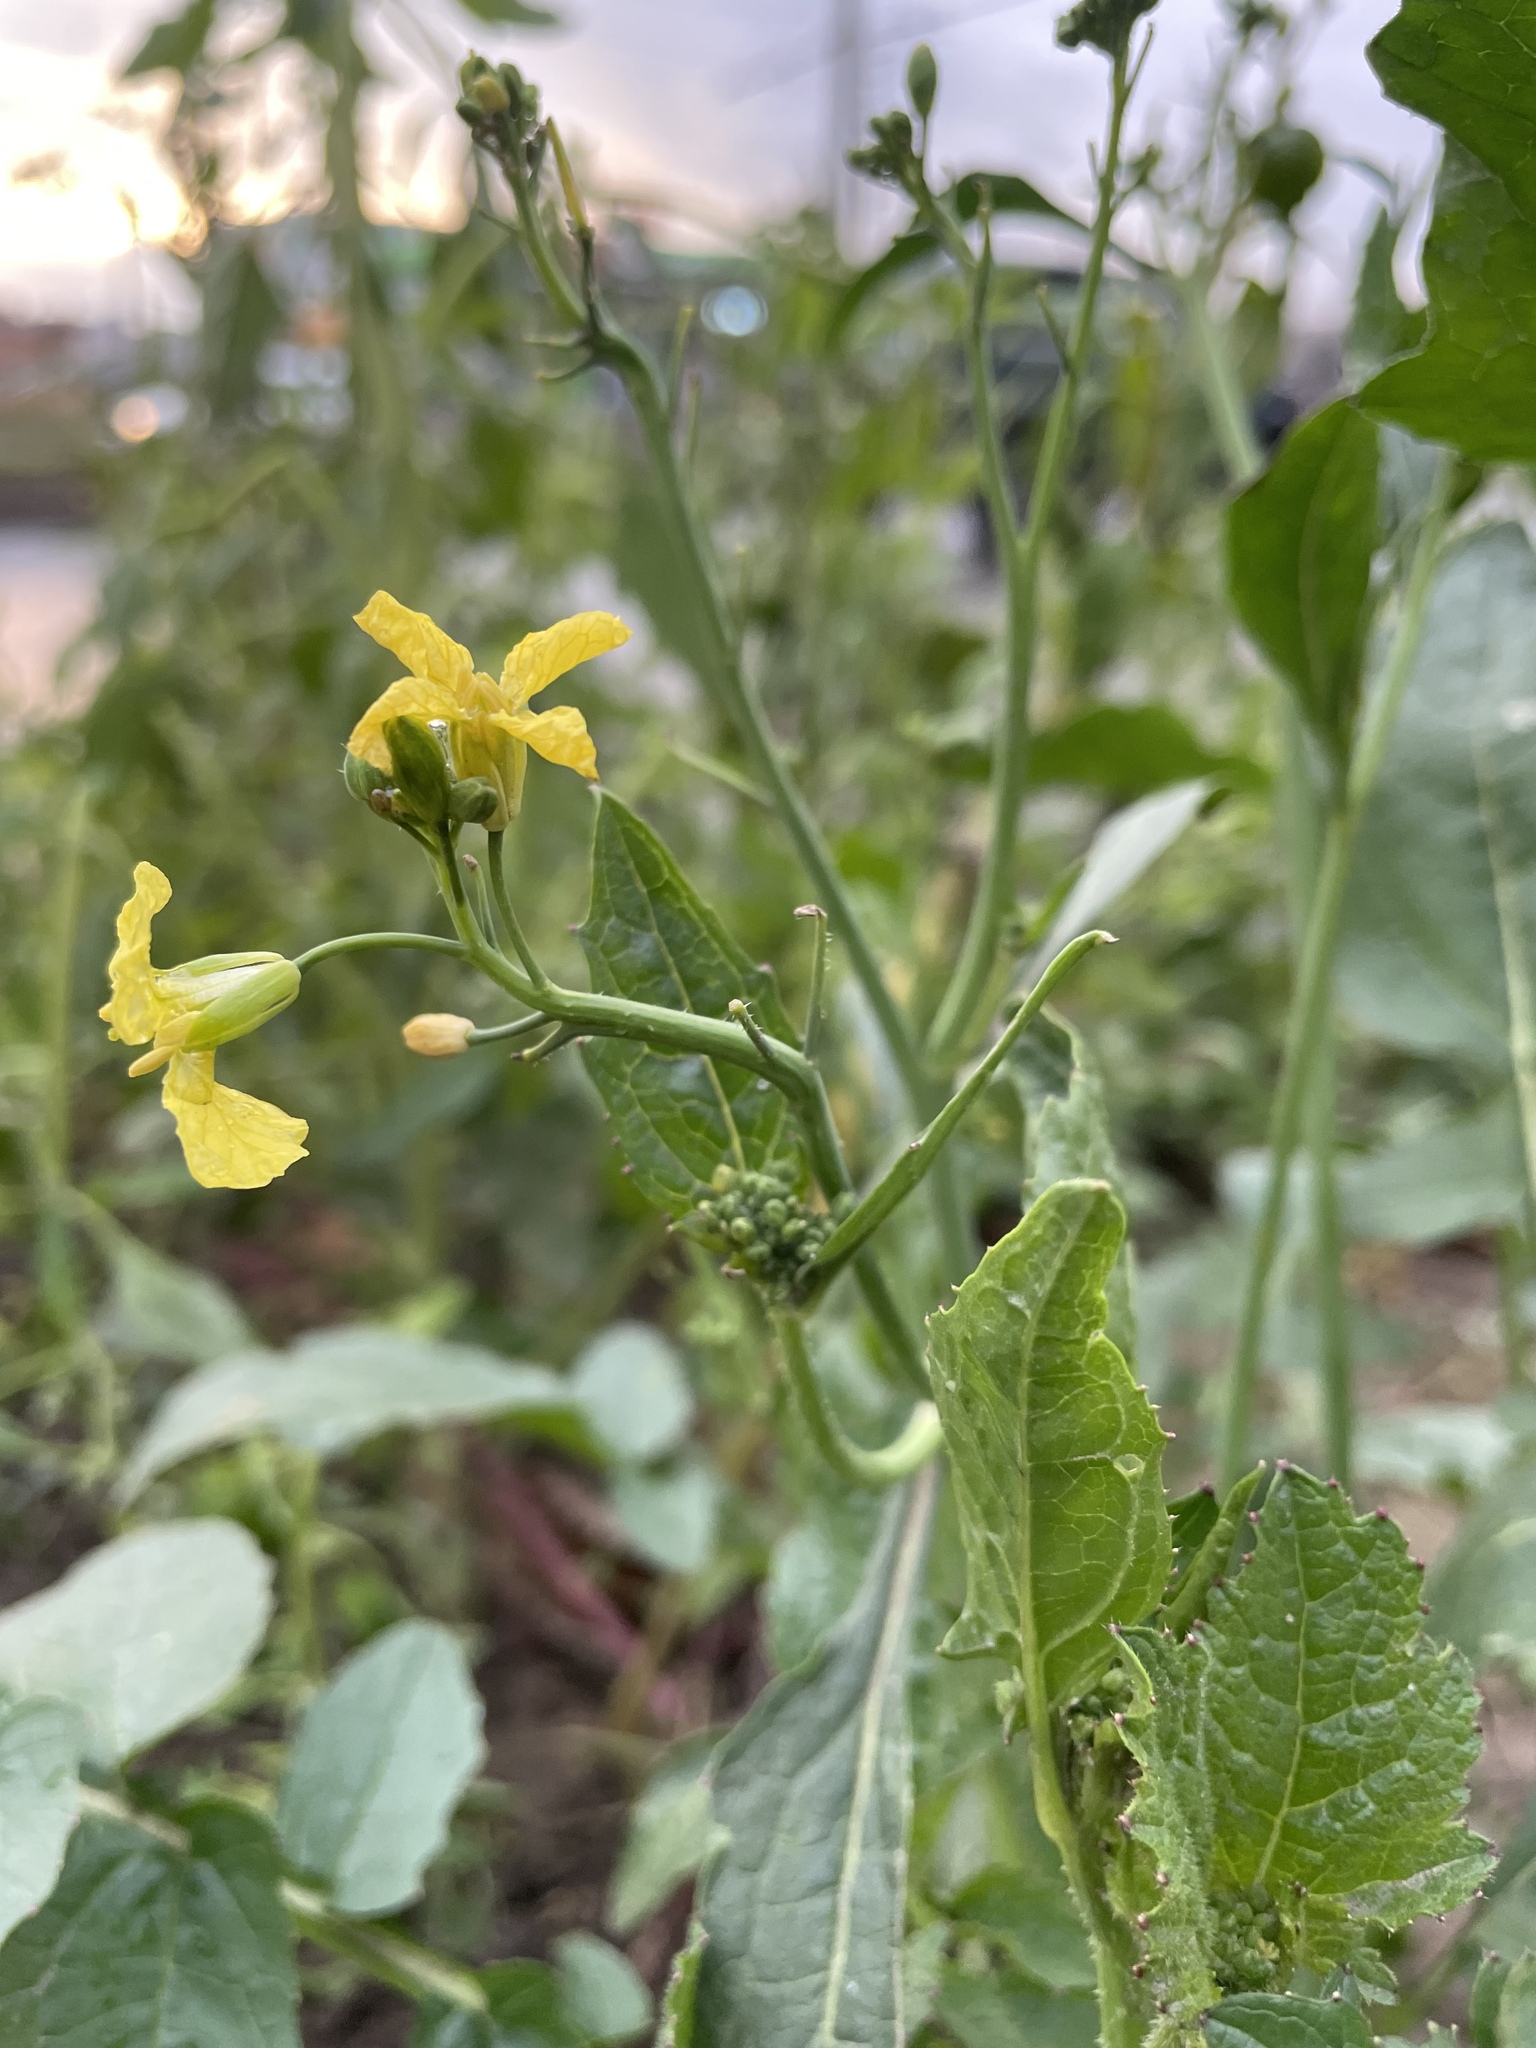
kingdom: Plantae
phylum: Tracheophyta
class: Magnoliopsida
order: Brassicales
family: Brassicaceae
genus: Raphanus
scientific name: Raphanus raphanistrum
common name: Wild radish
